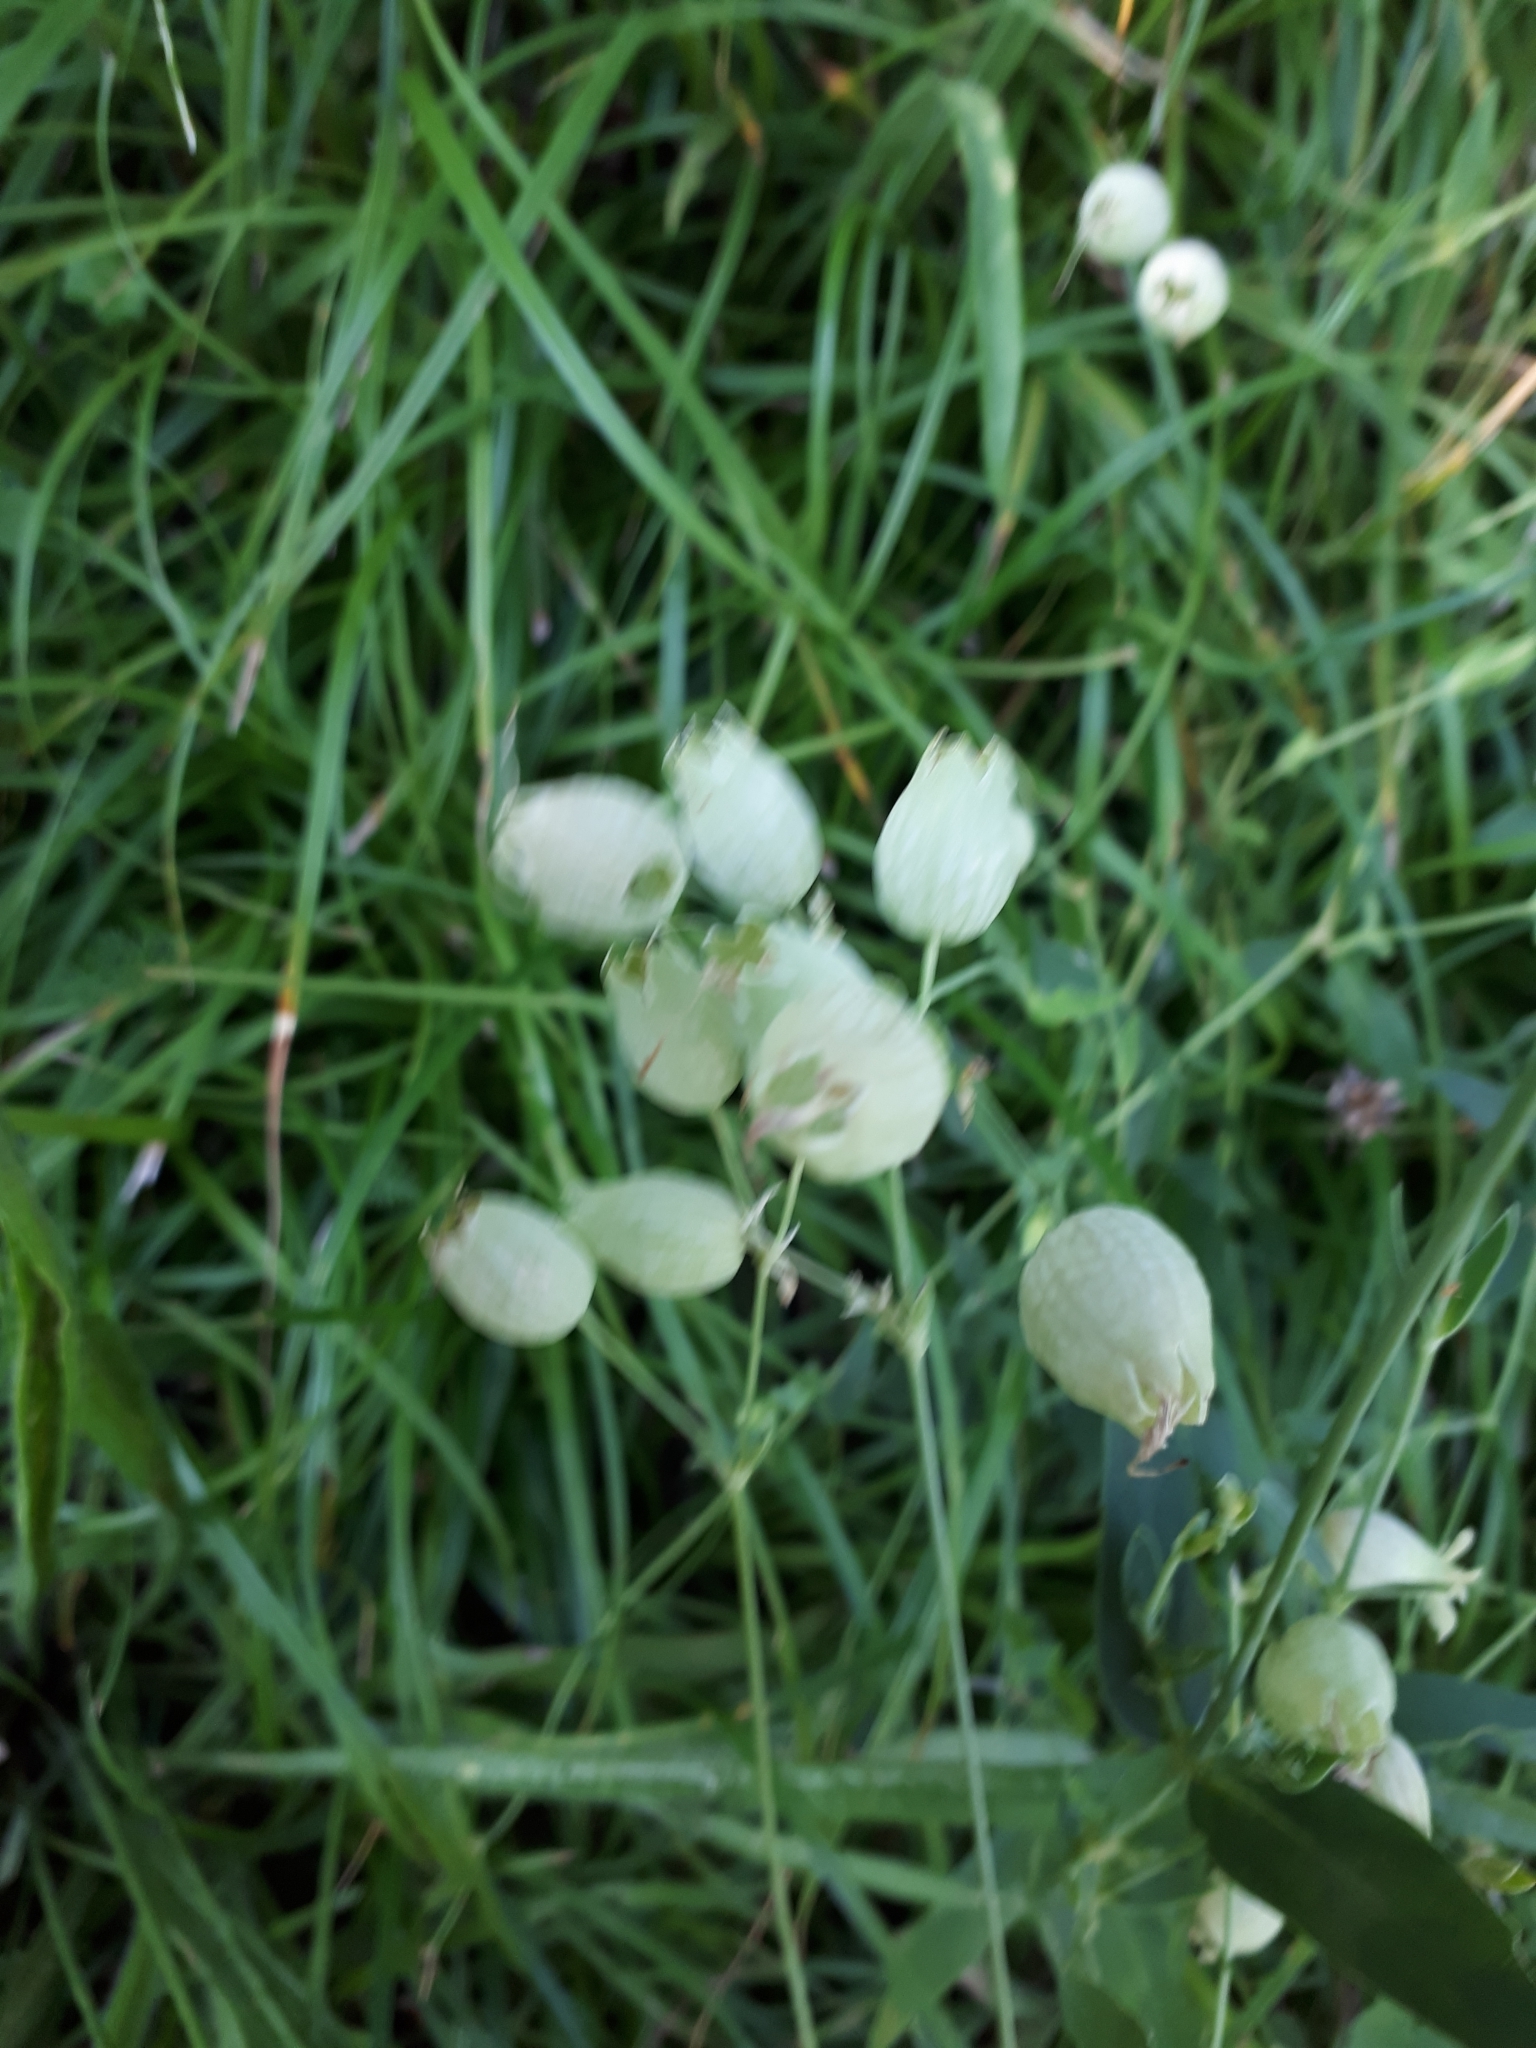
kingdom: Plantae
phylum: Tracheophyta
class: Magnoliopsida
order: Caryophyllales
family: Caryophyllaceae
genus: Silene
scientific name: Silene vulgaris
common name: Bladder campion
